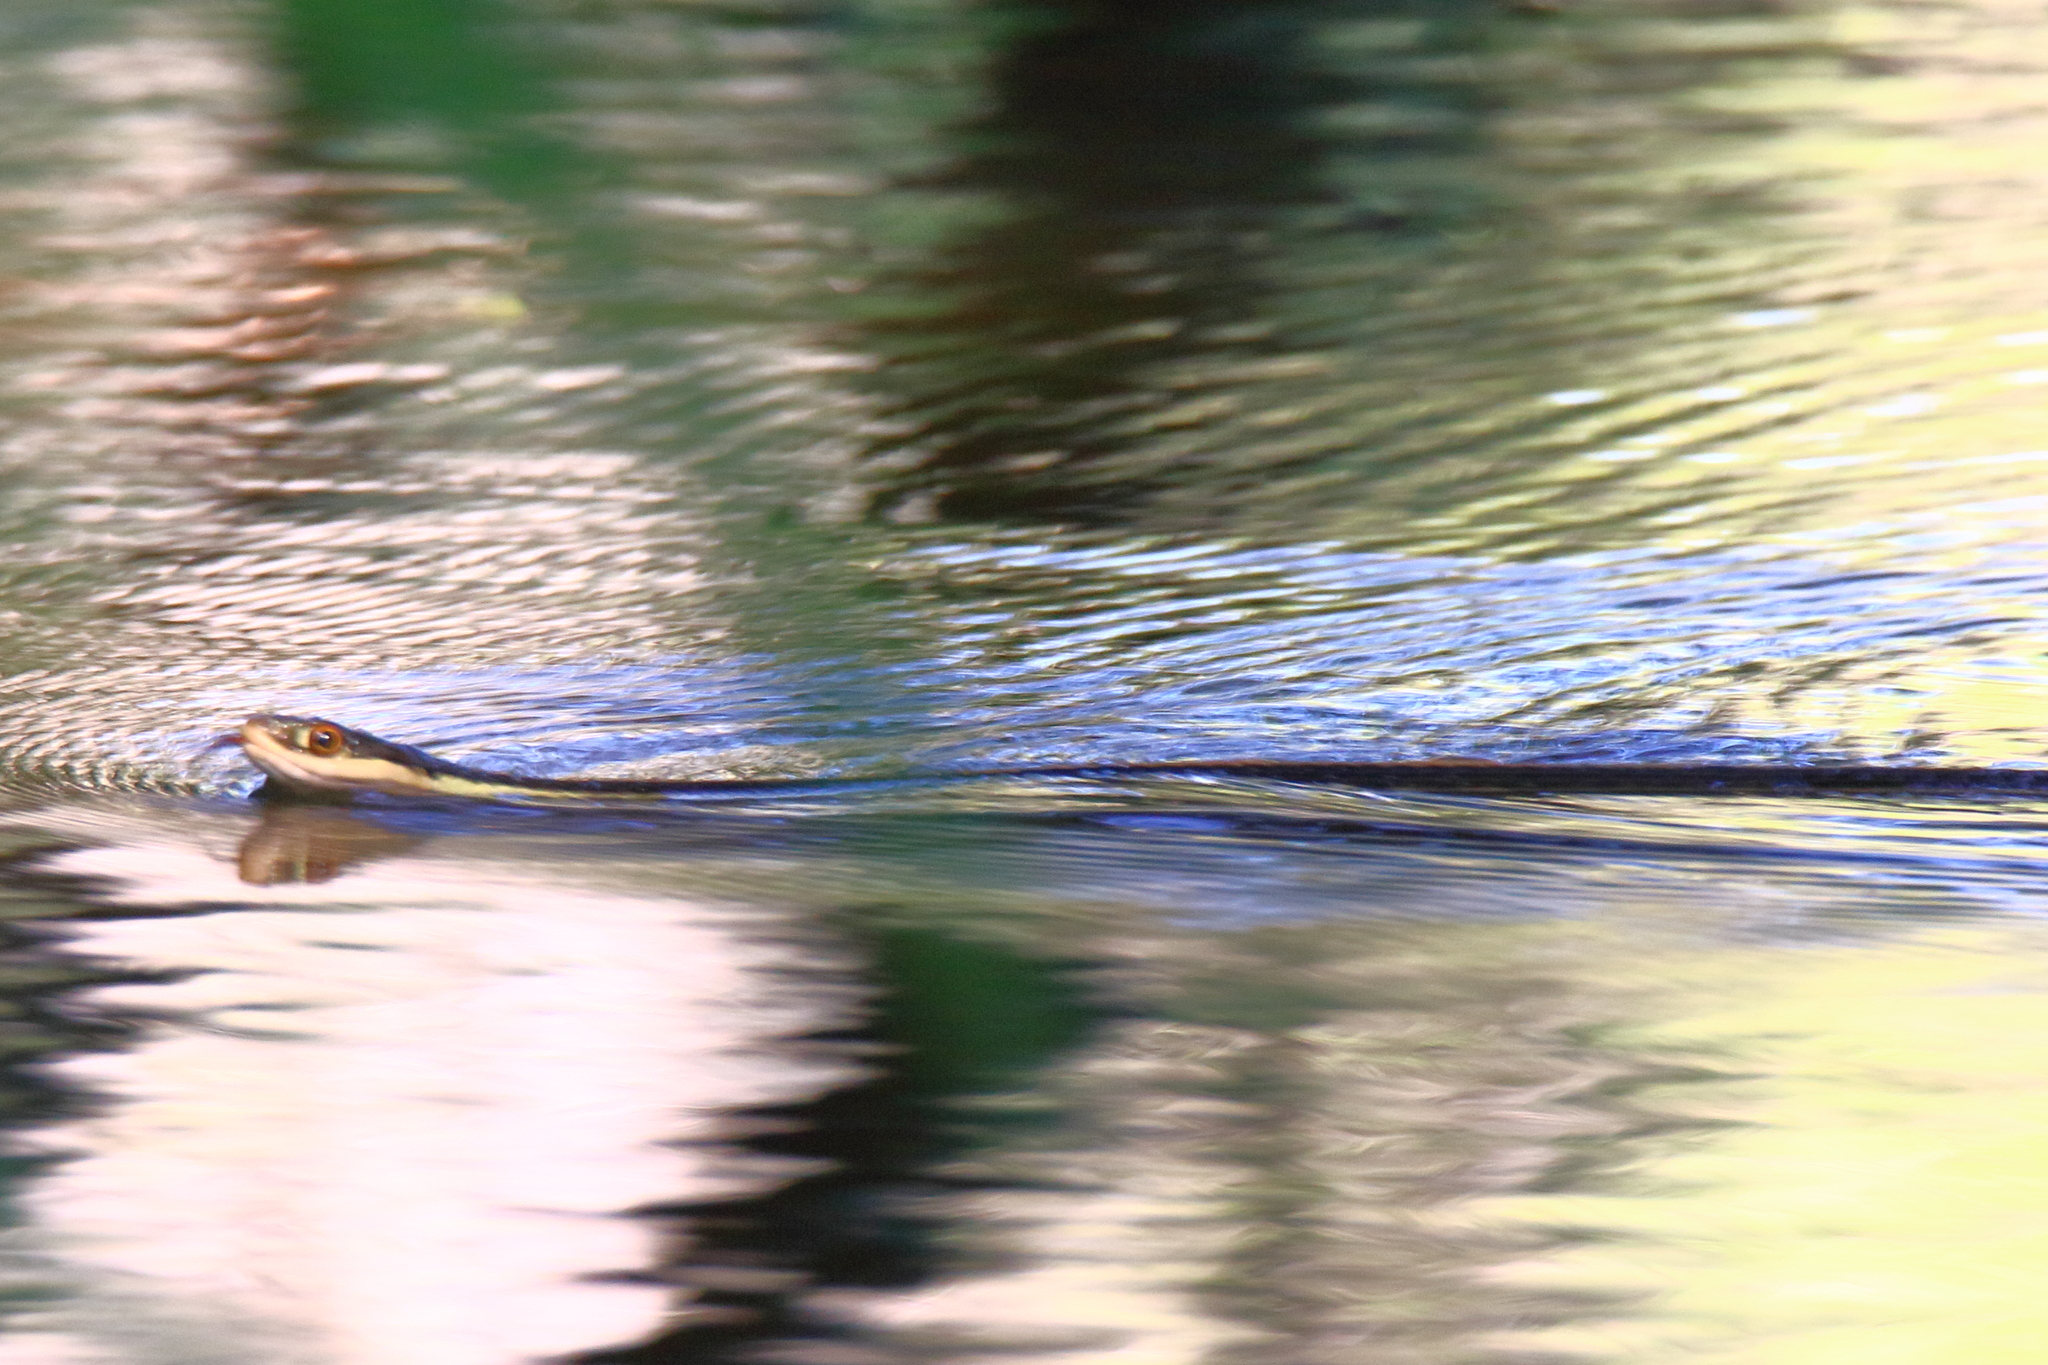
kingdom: Animalia
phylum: Chordata
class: Squamata
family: Colubridae
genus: Thamnophis
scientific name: Thamnophis proximus
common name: Western ribbon snake
